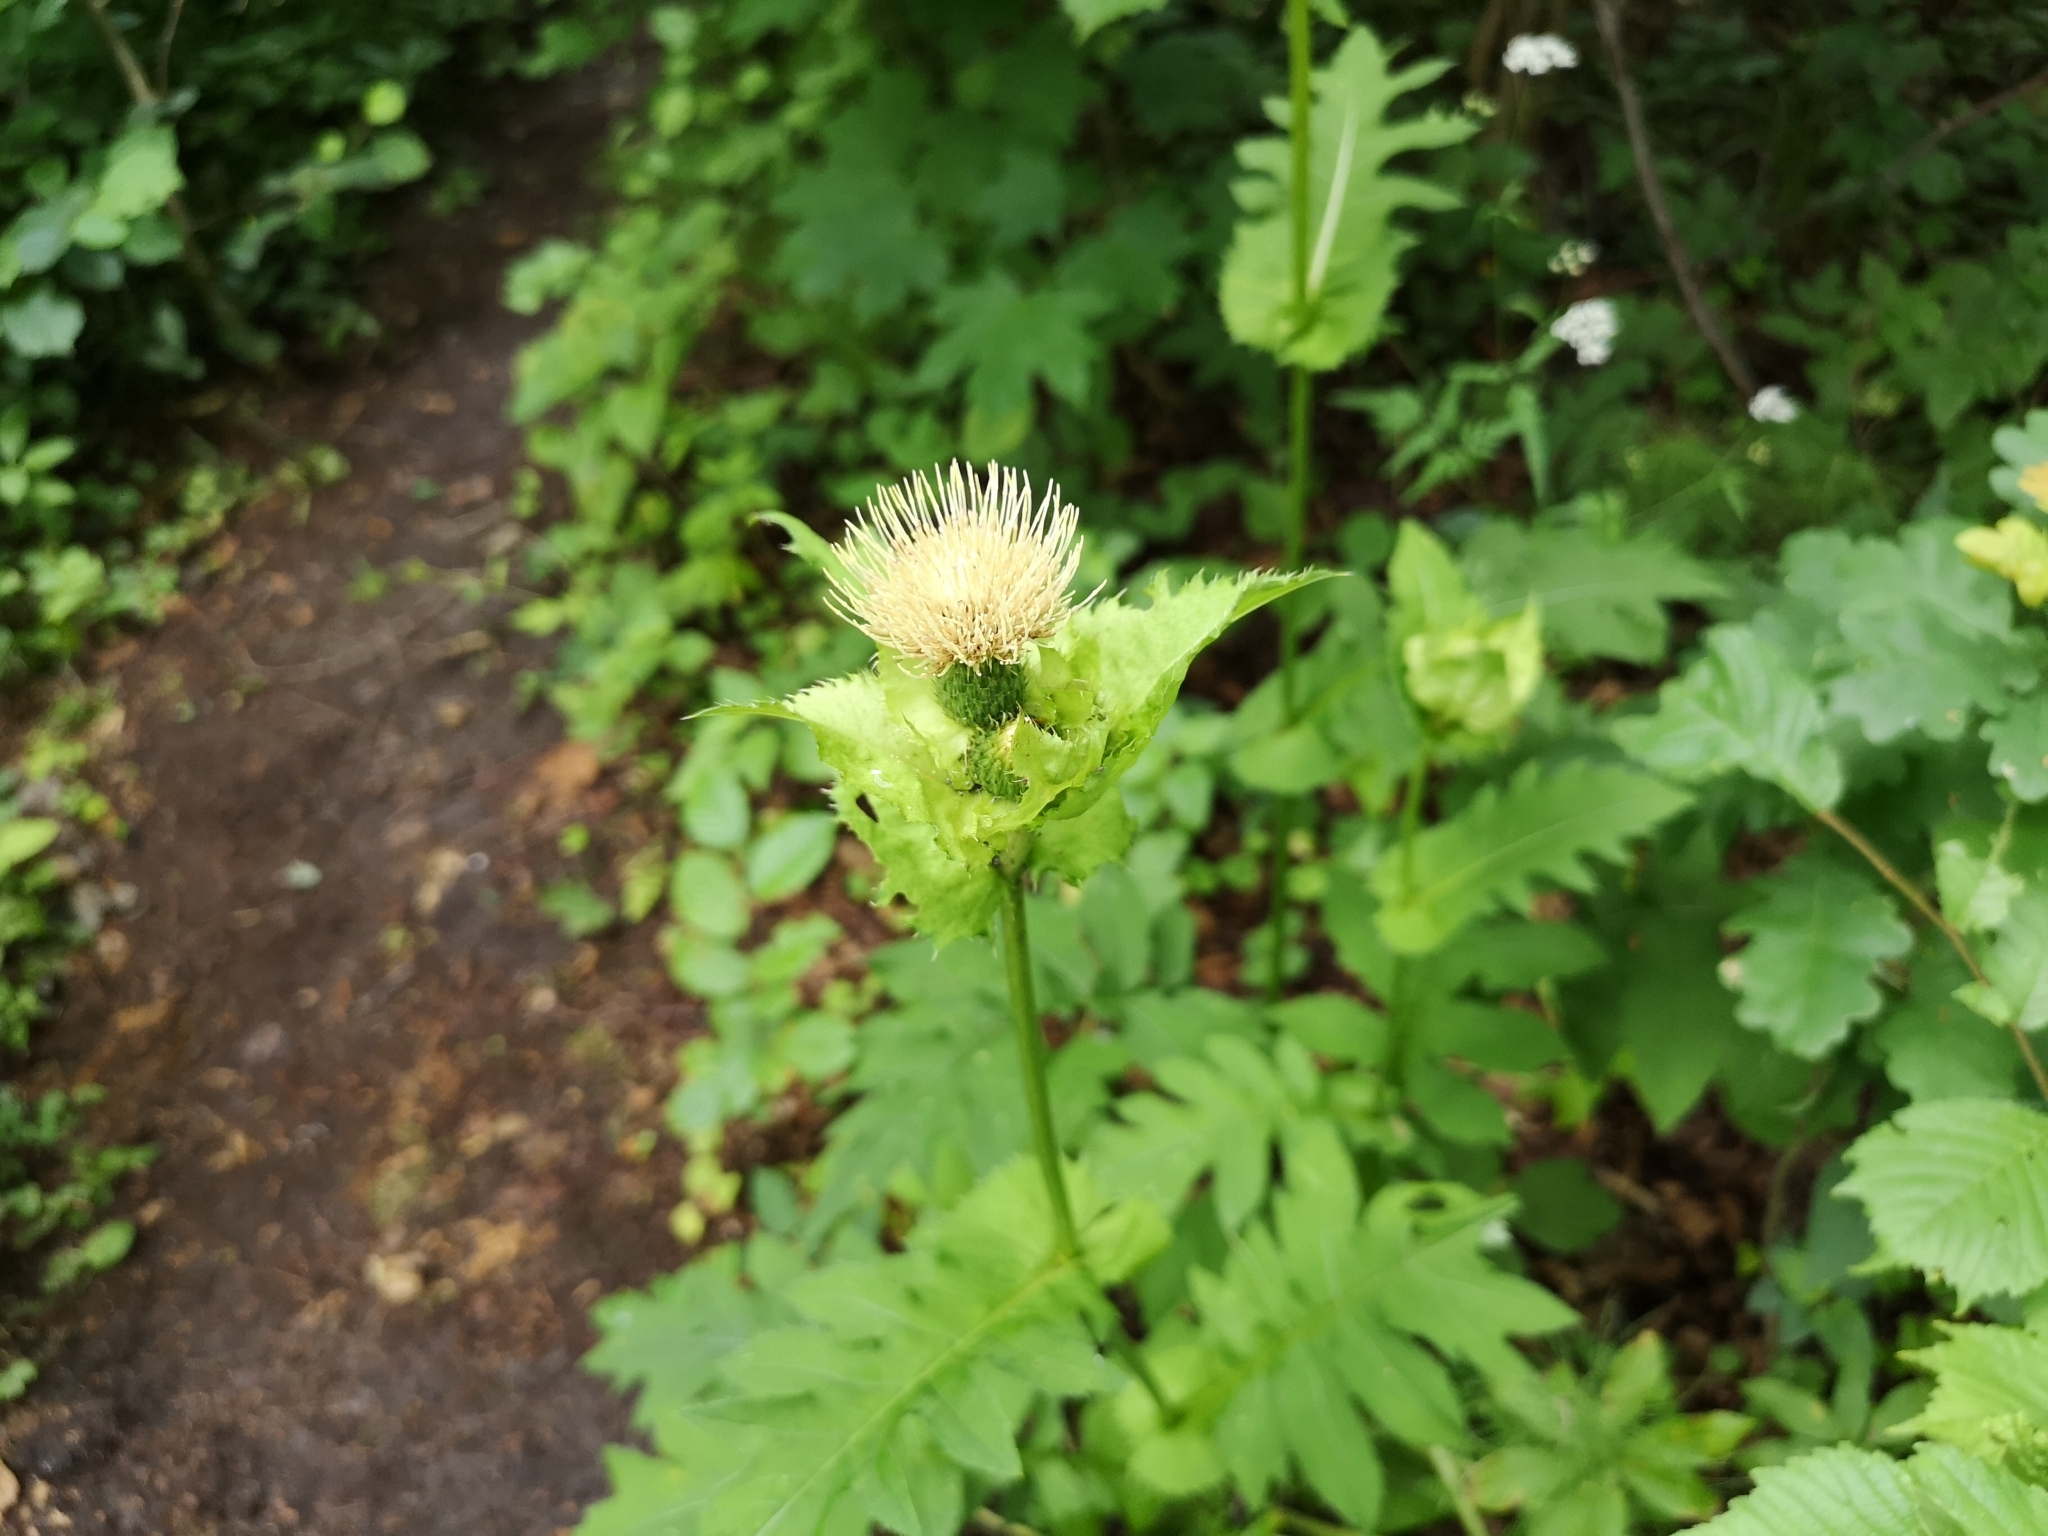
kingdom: Plantae
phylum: Tracheophyta
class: Magnoliopsida
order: Asterales
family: Asteraceae
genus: Cirsium
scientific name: Cirsium oleraceum
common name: Cabbage thistle
